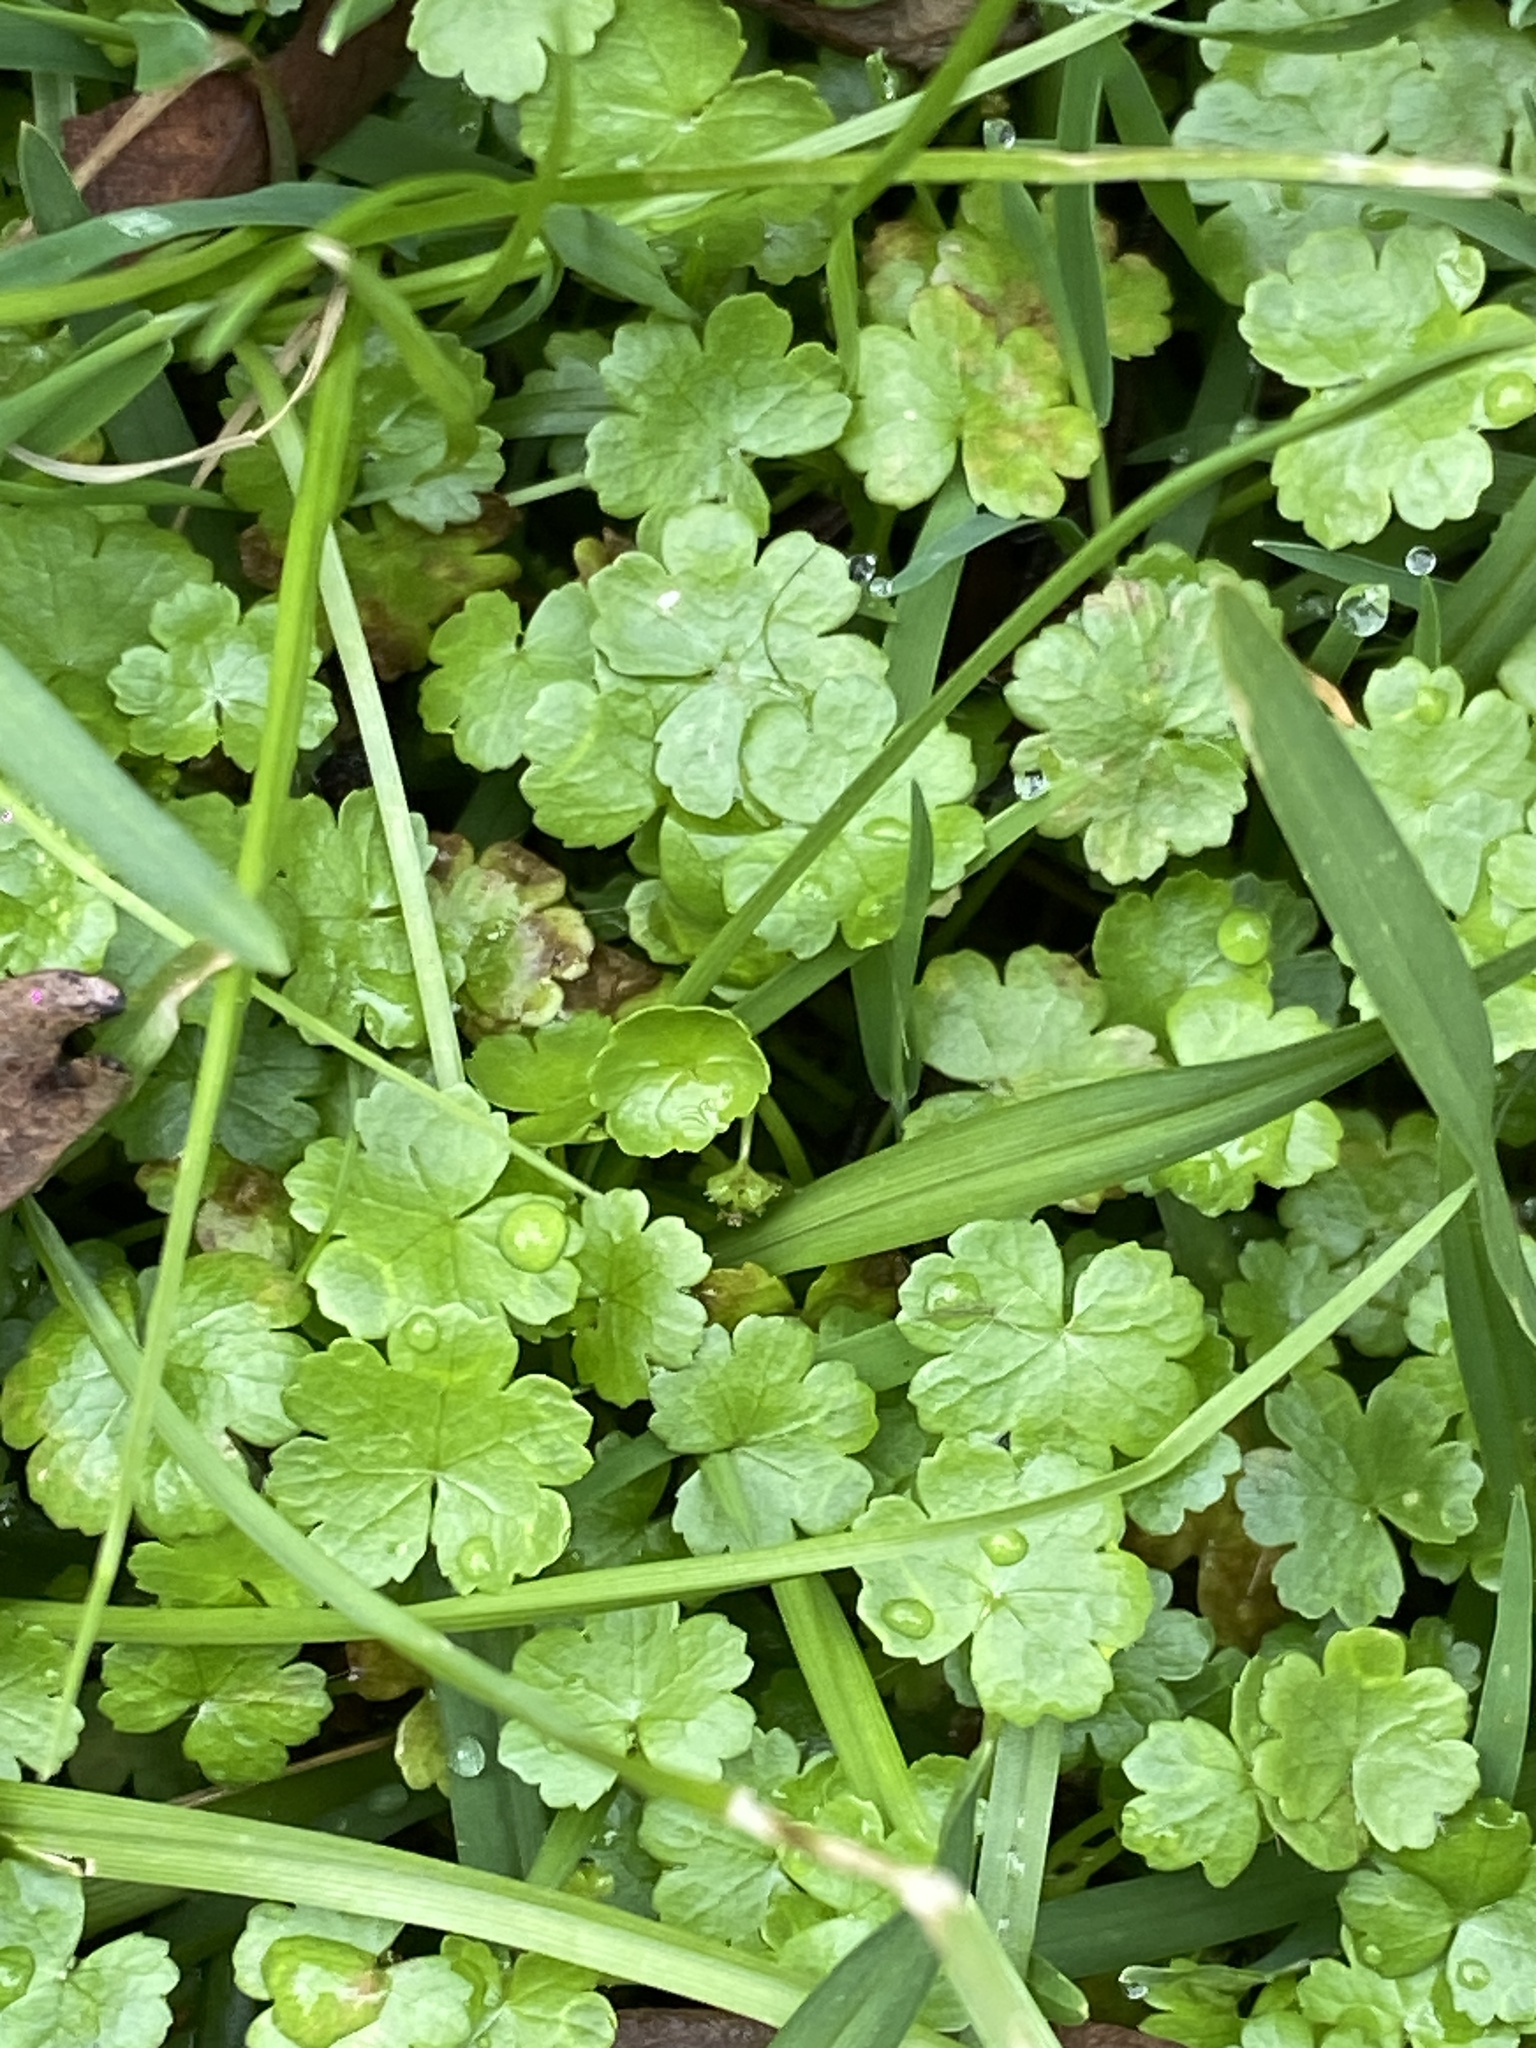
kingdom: Plantae
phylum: Tracheophyta
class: Magnoliopsida
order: Apiales
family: Araliaceae
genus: Hydrocotyle
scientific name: Hydrocotyle sibthorpioides
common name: Lawn marshpennywort
